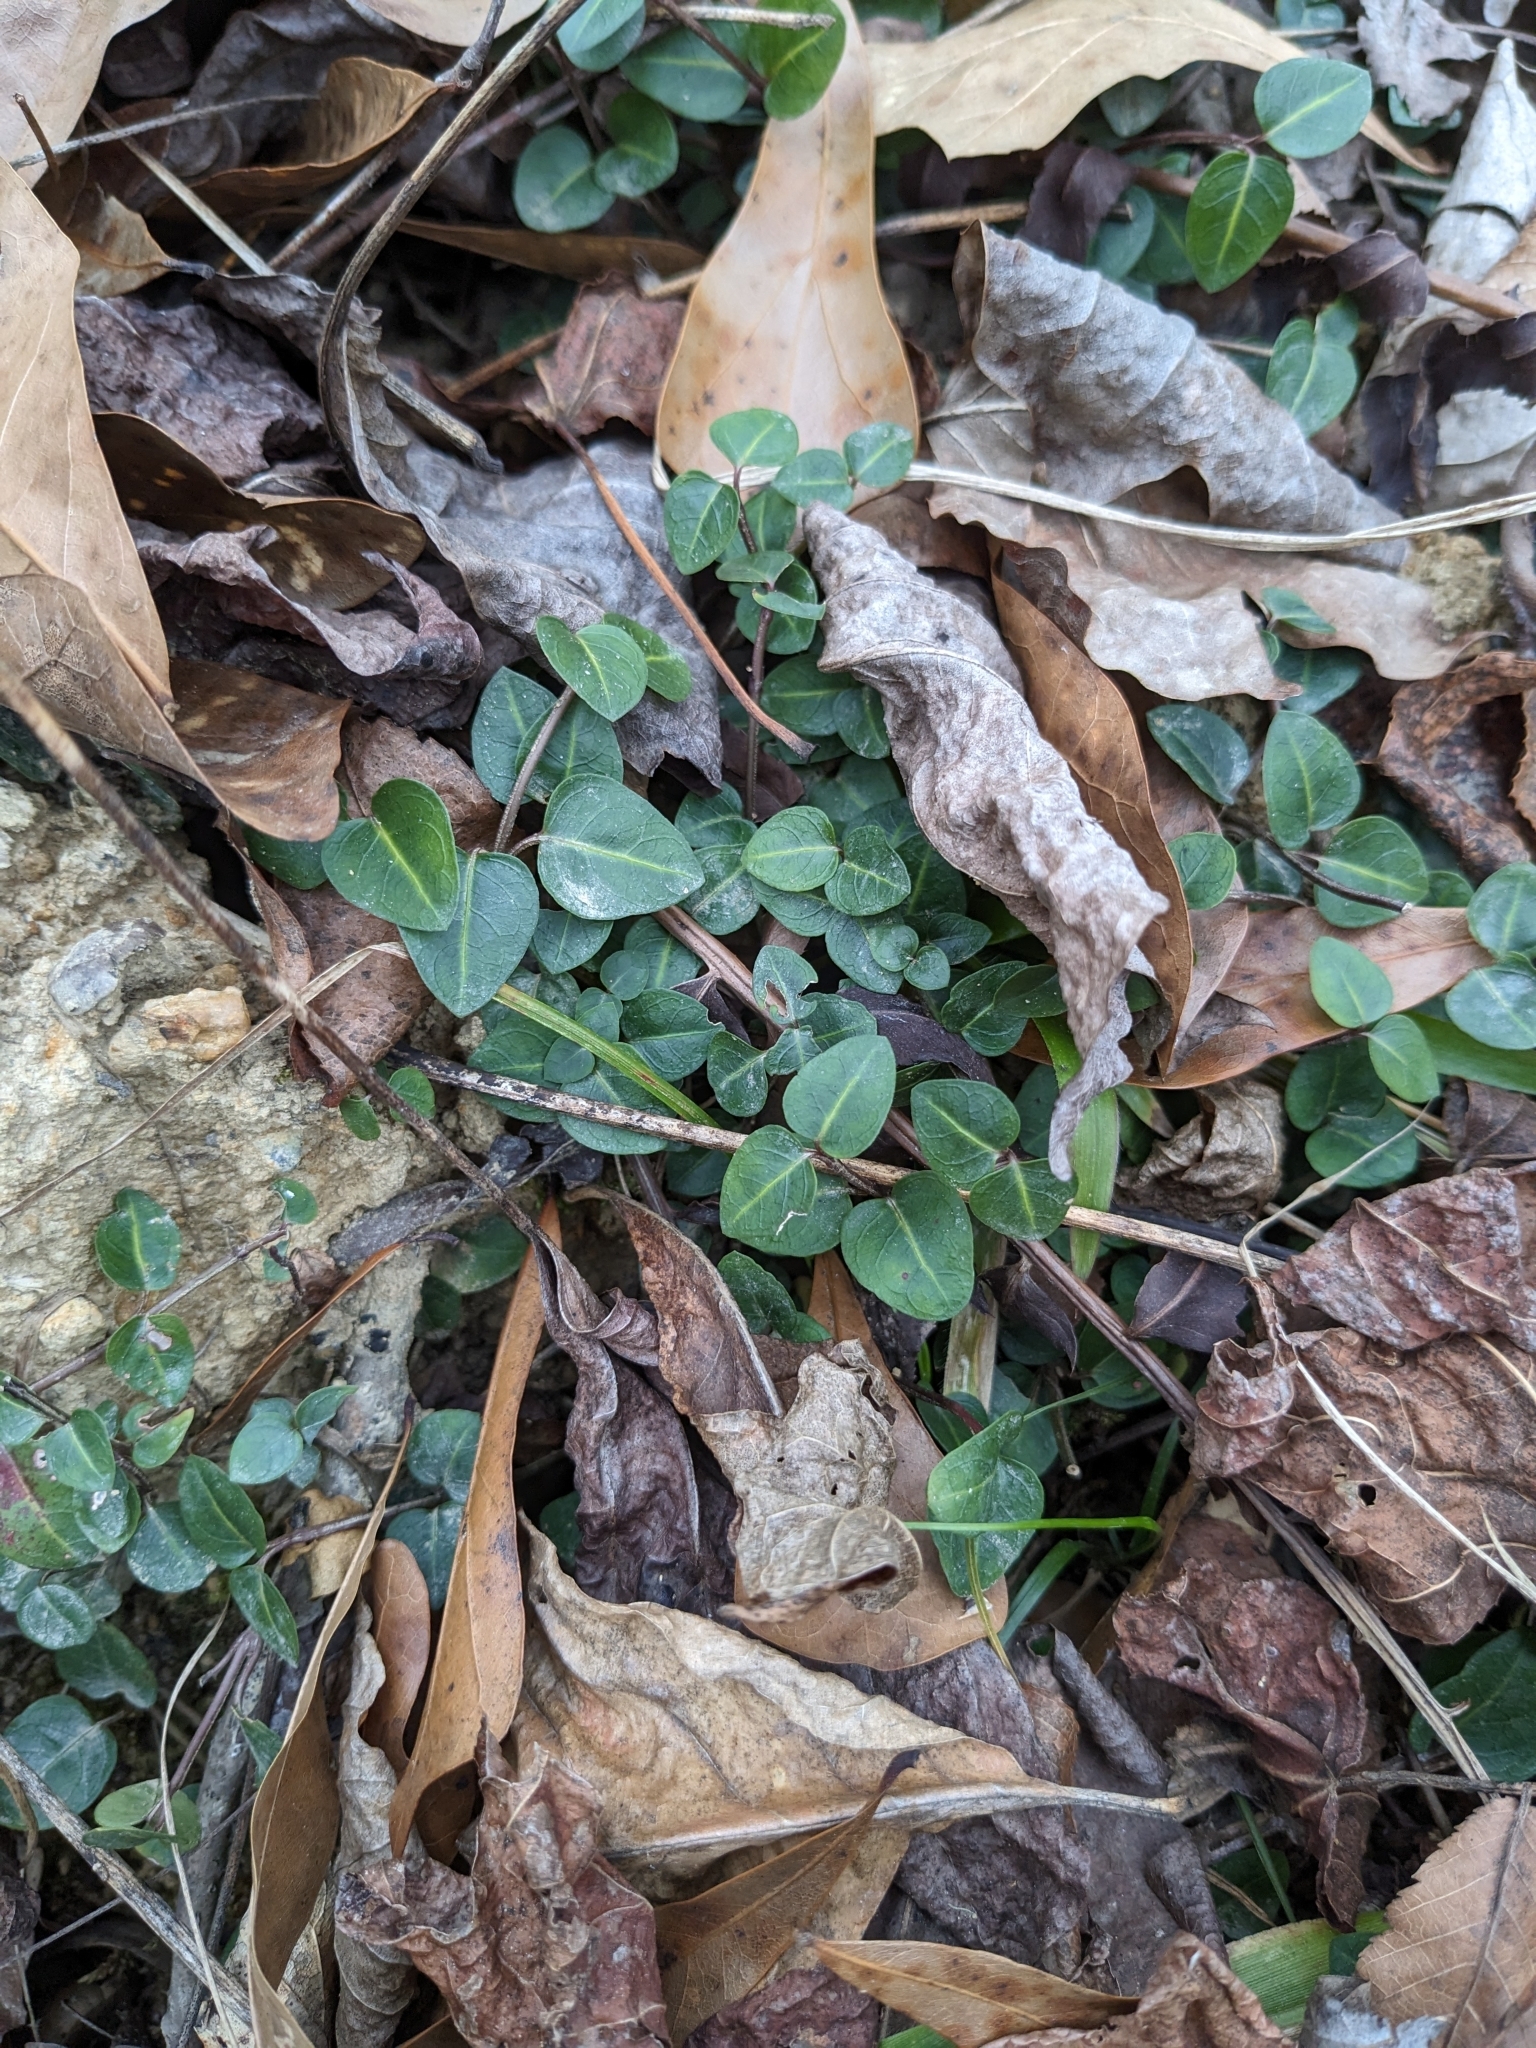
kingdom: Plantae
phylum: Tracheophyta
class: Magnoliopsida
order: Gentianales
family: Rubiaceae
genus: Mitchella
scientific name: Mitchella repens
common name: Partridge-berry
